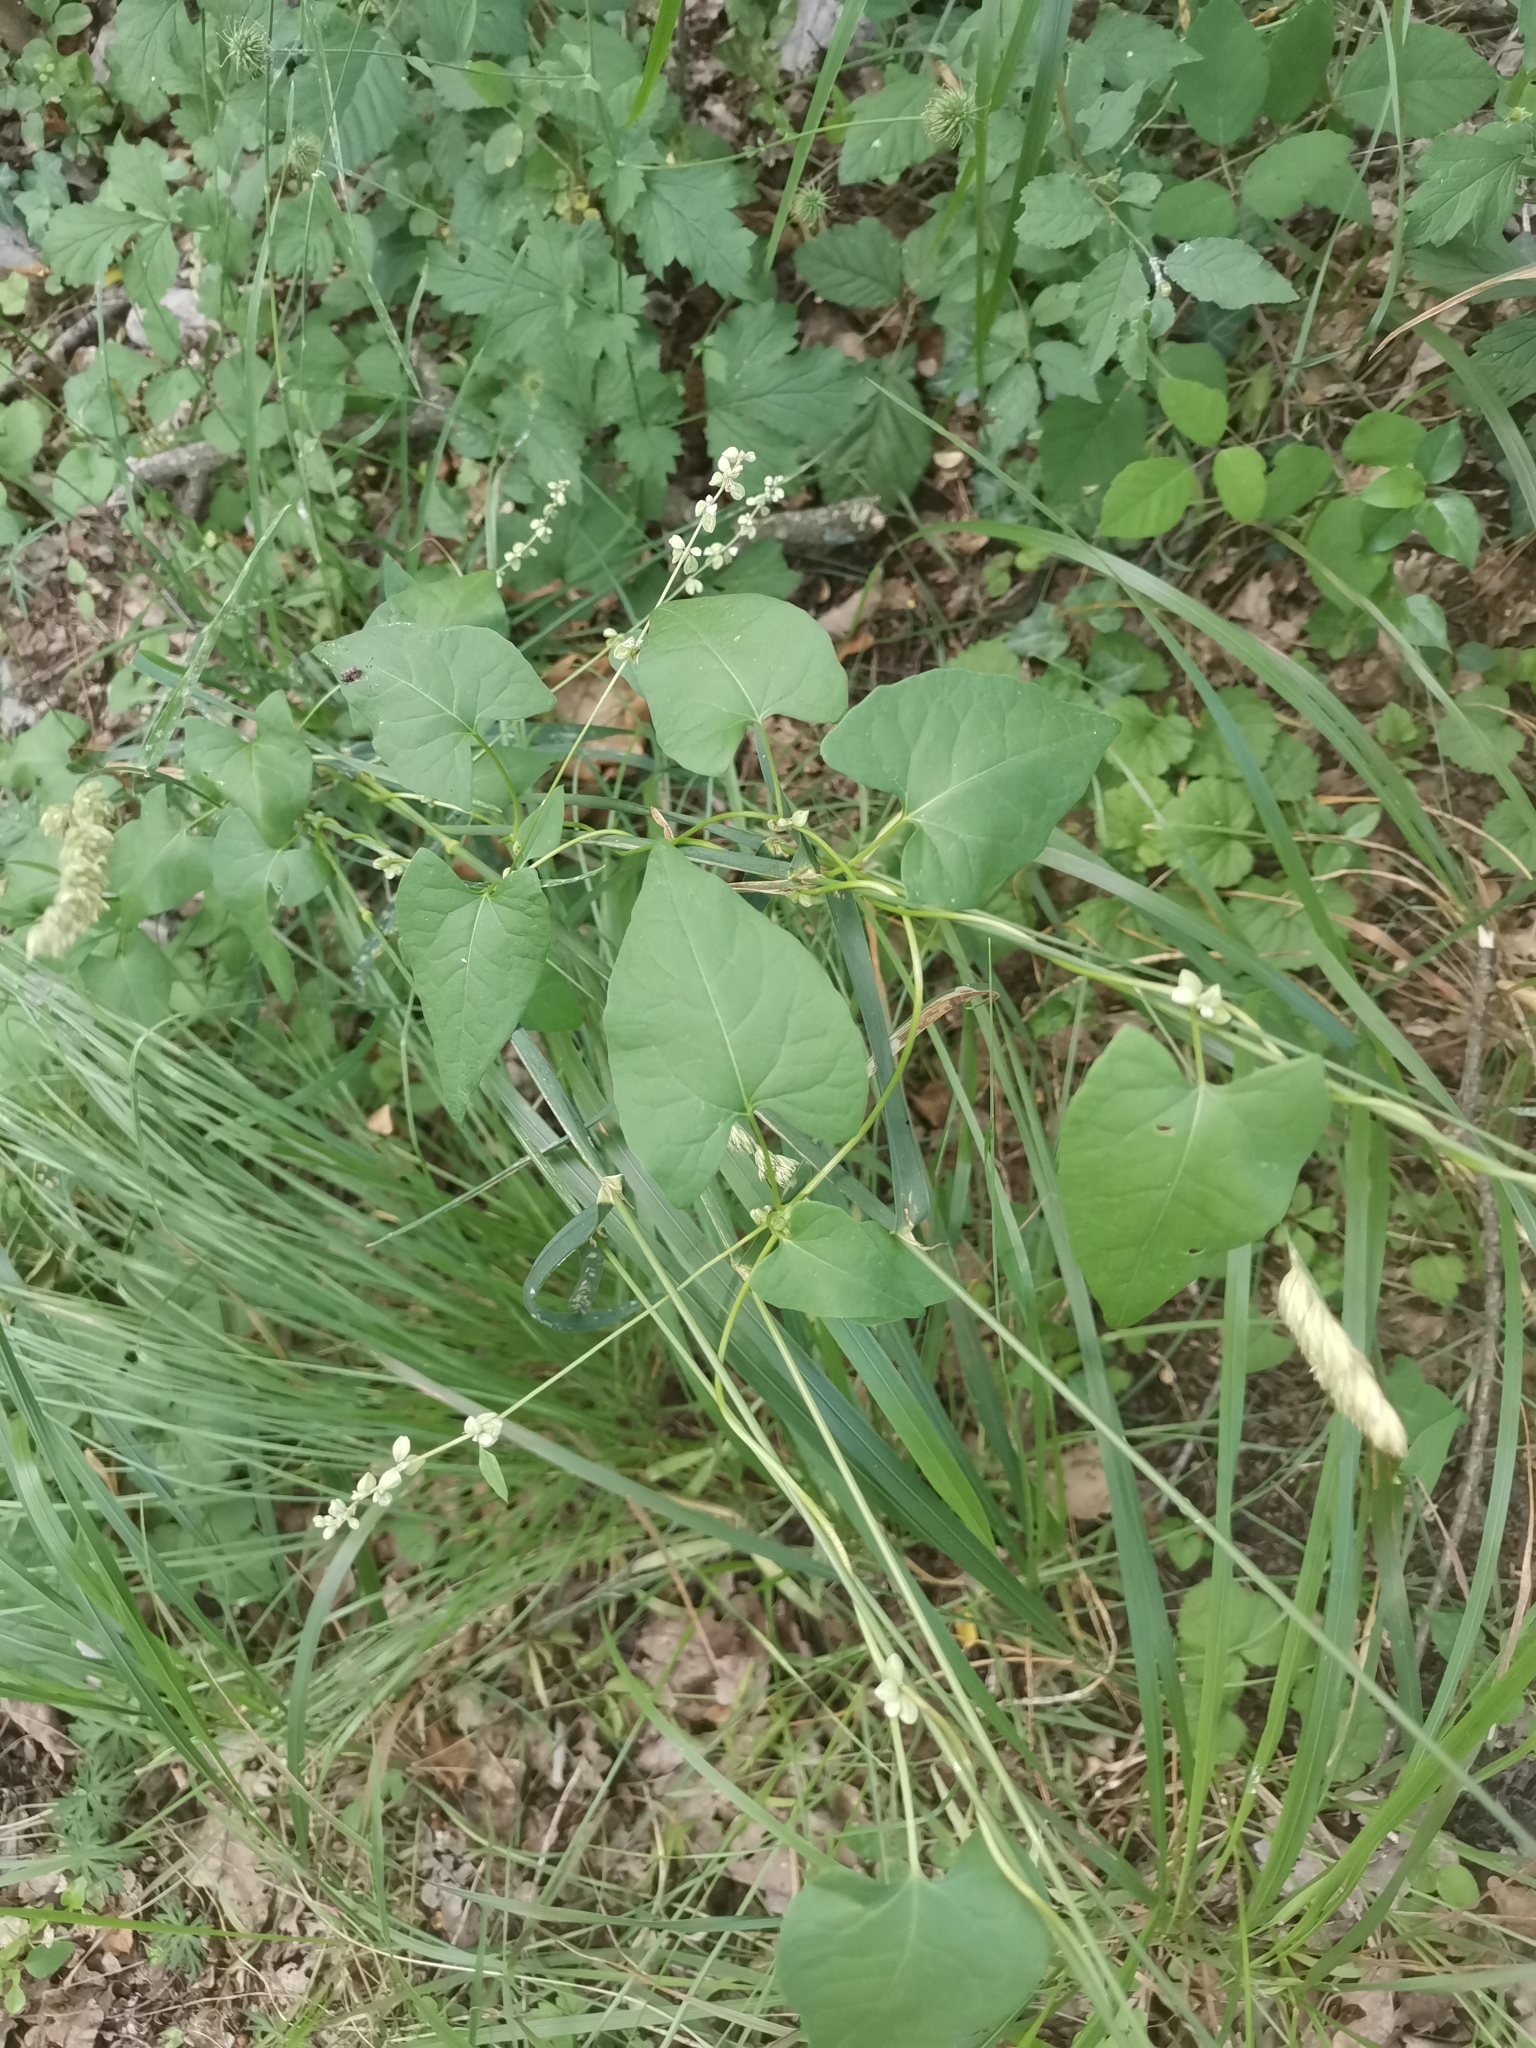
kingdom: Plantae
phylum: Tracheophyta
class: Magnoliopsida
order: Caryophyllales
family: Polygonaceae
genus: Fallopia
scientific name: Fallopia convolvulus
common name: Black bindweed
